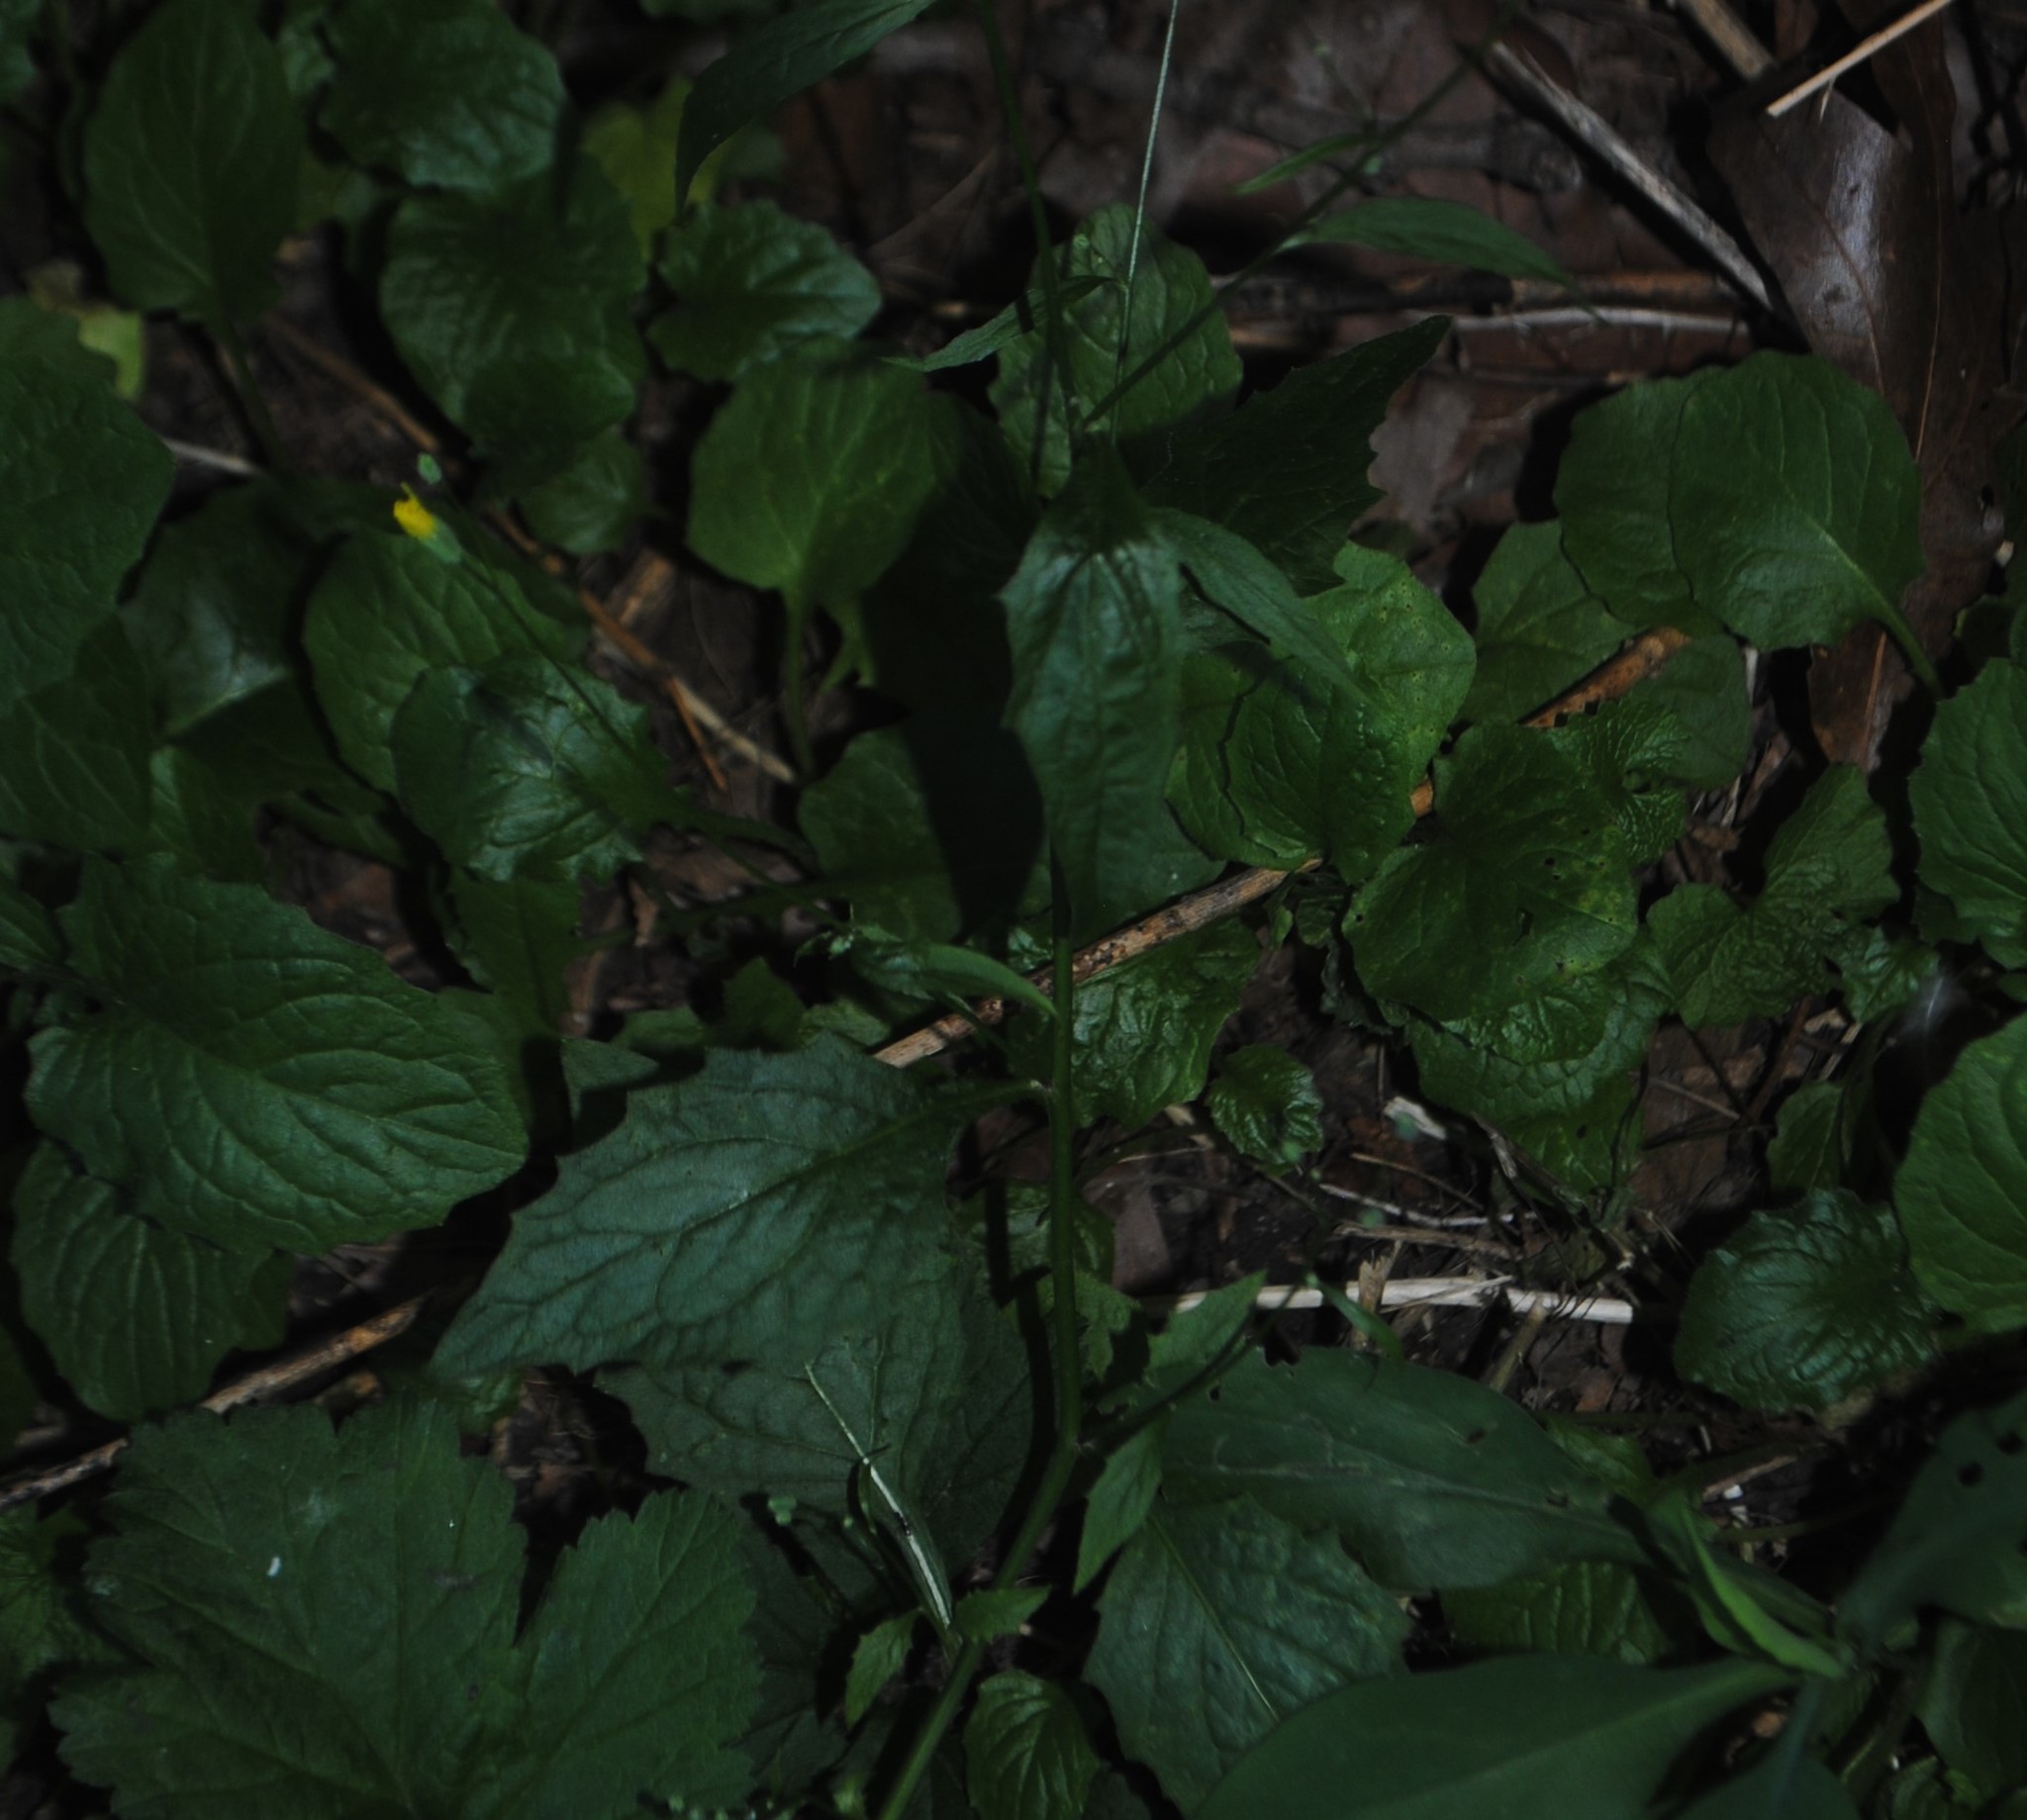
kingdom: Plantae
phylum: Tracheophyta
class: Magnoliopsida
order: Asterales
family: Asteraceae
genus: Lapsana
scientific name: Lapsana communis
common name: Nipplewort
